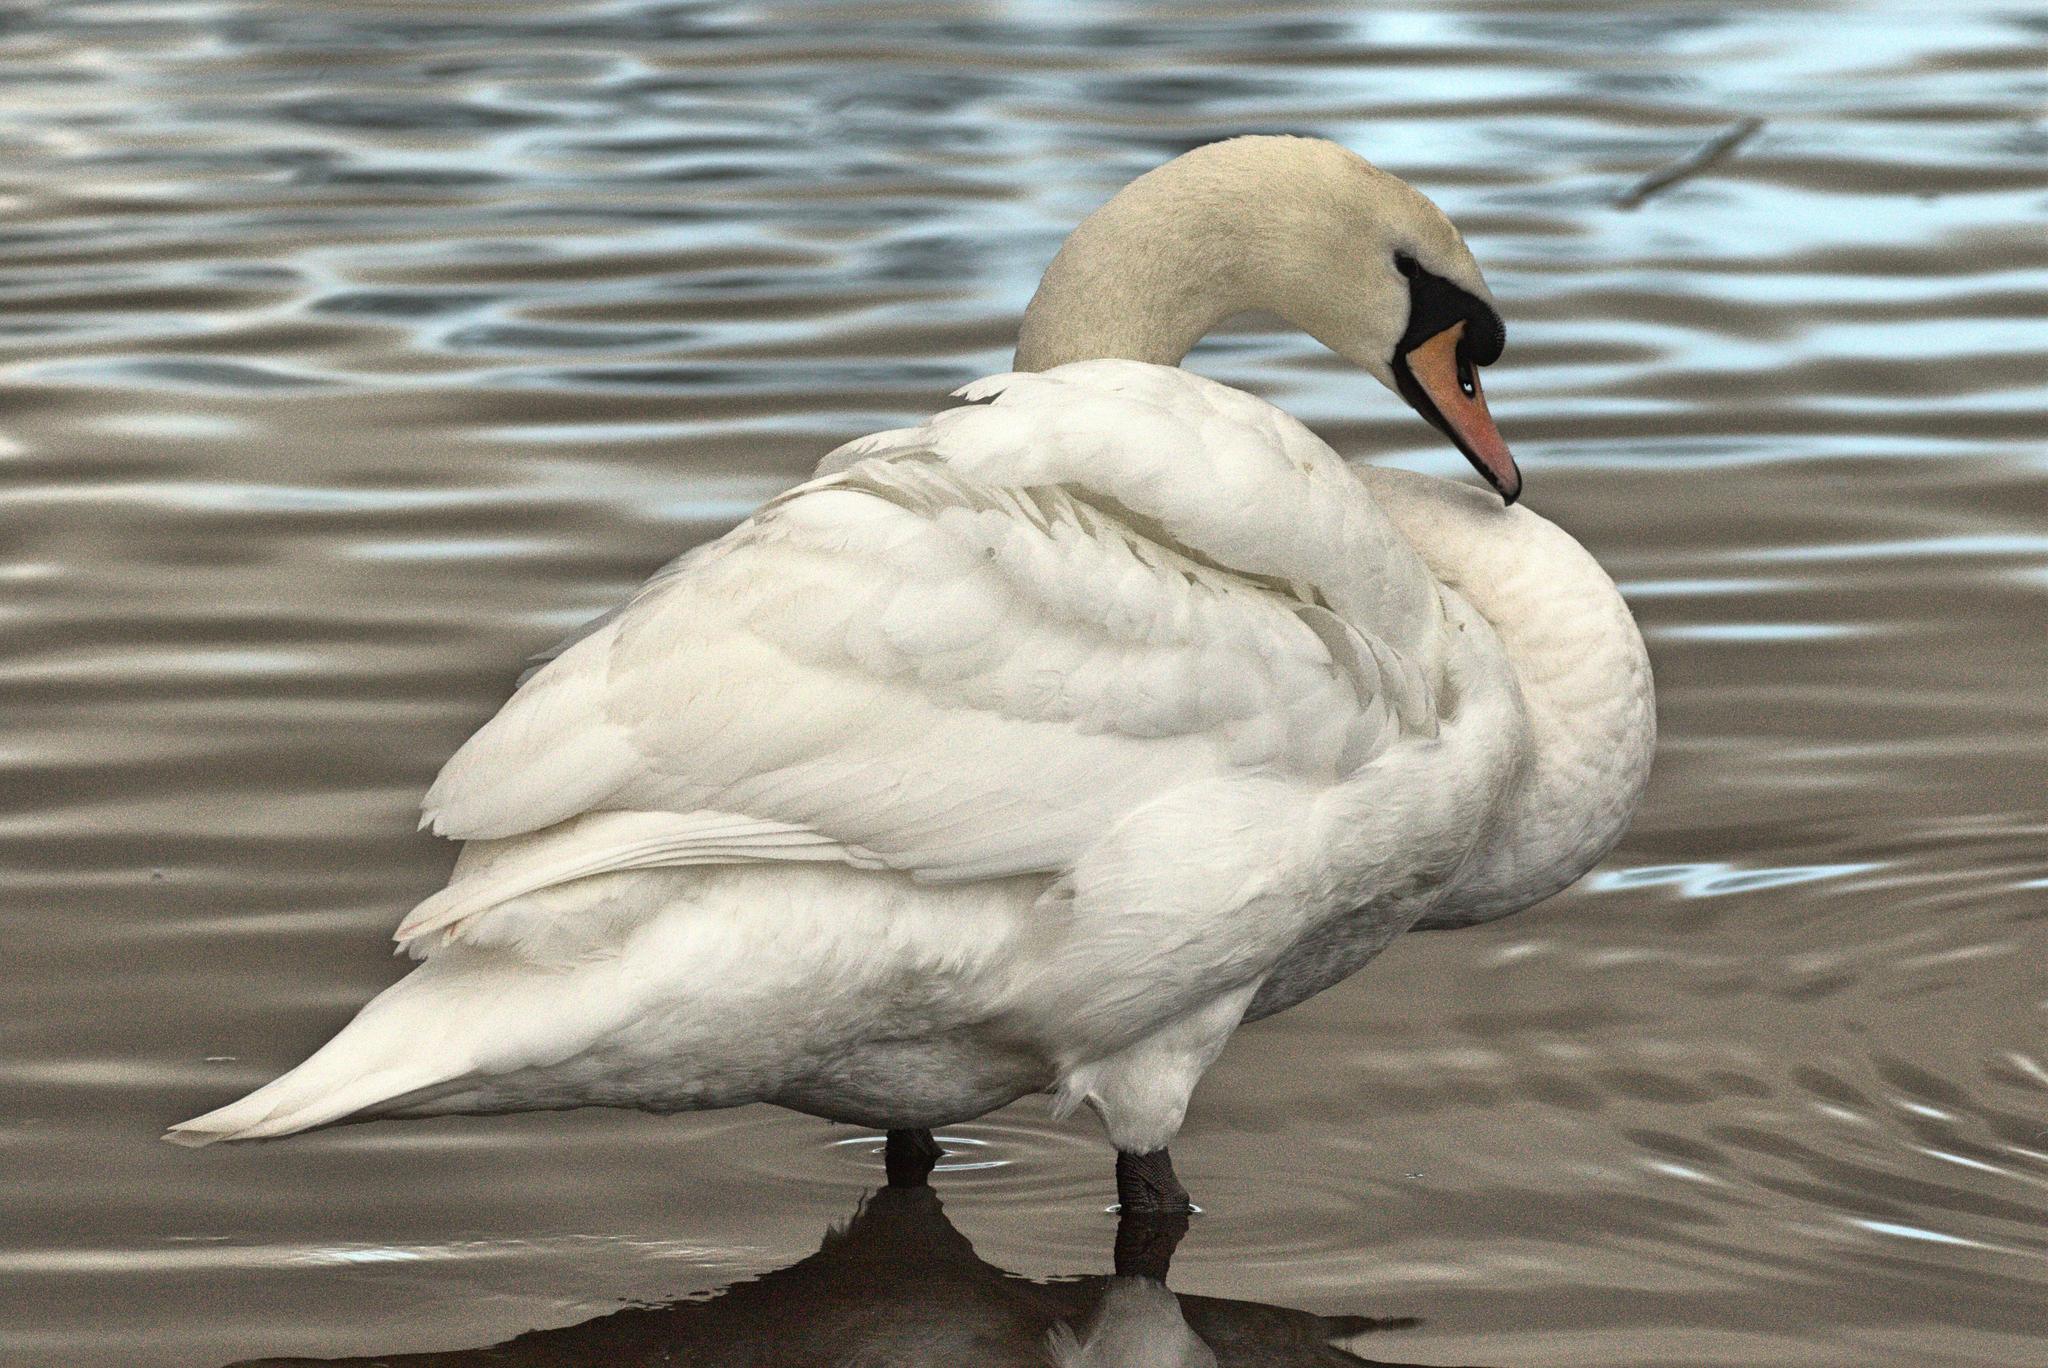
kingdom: Animalia
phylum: Chordata
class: Aves
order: Anseriformes
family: Anatidae
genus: Cygnus
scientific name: Cygnus olor
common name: Mute swan
